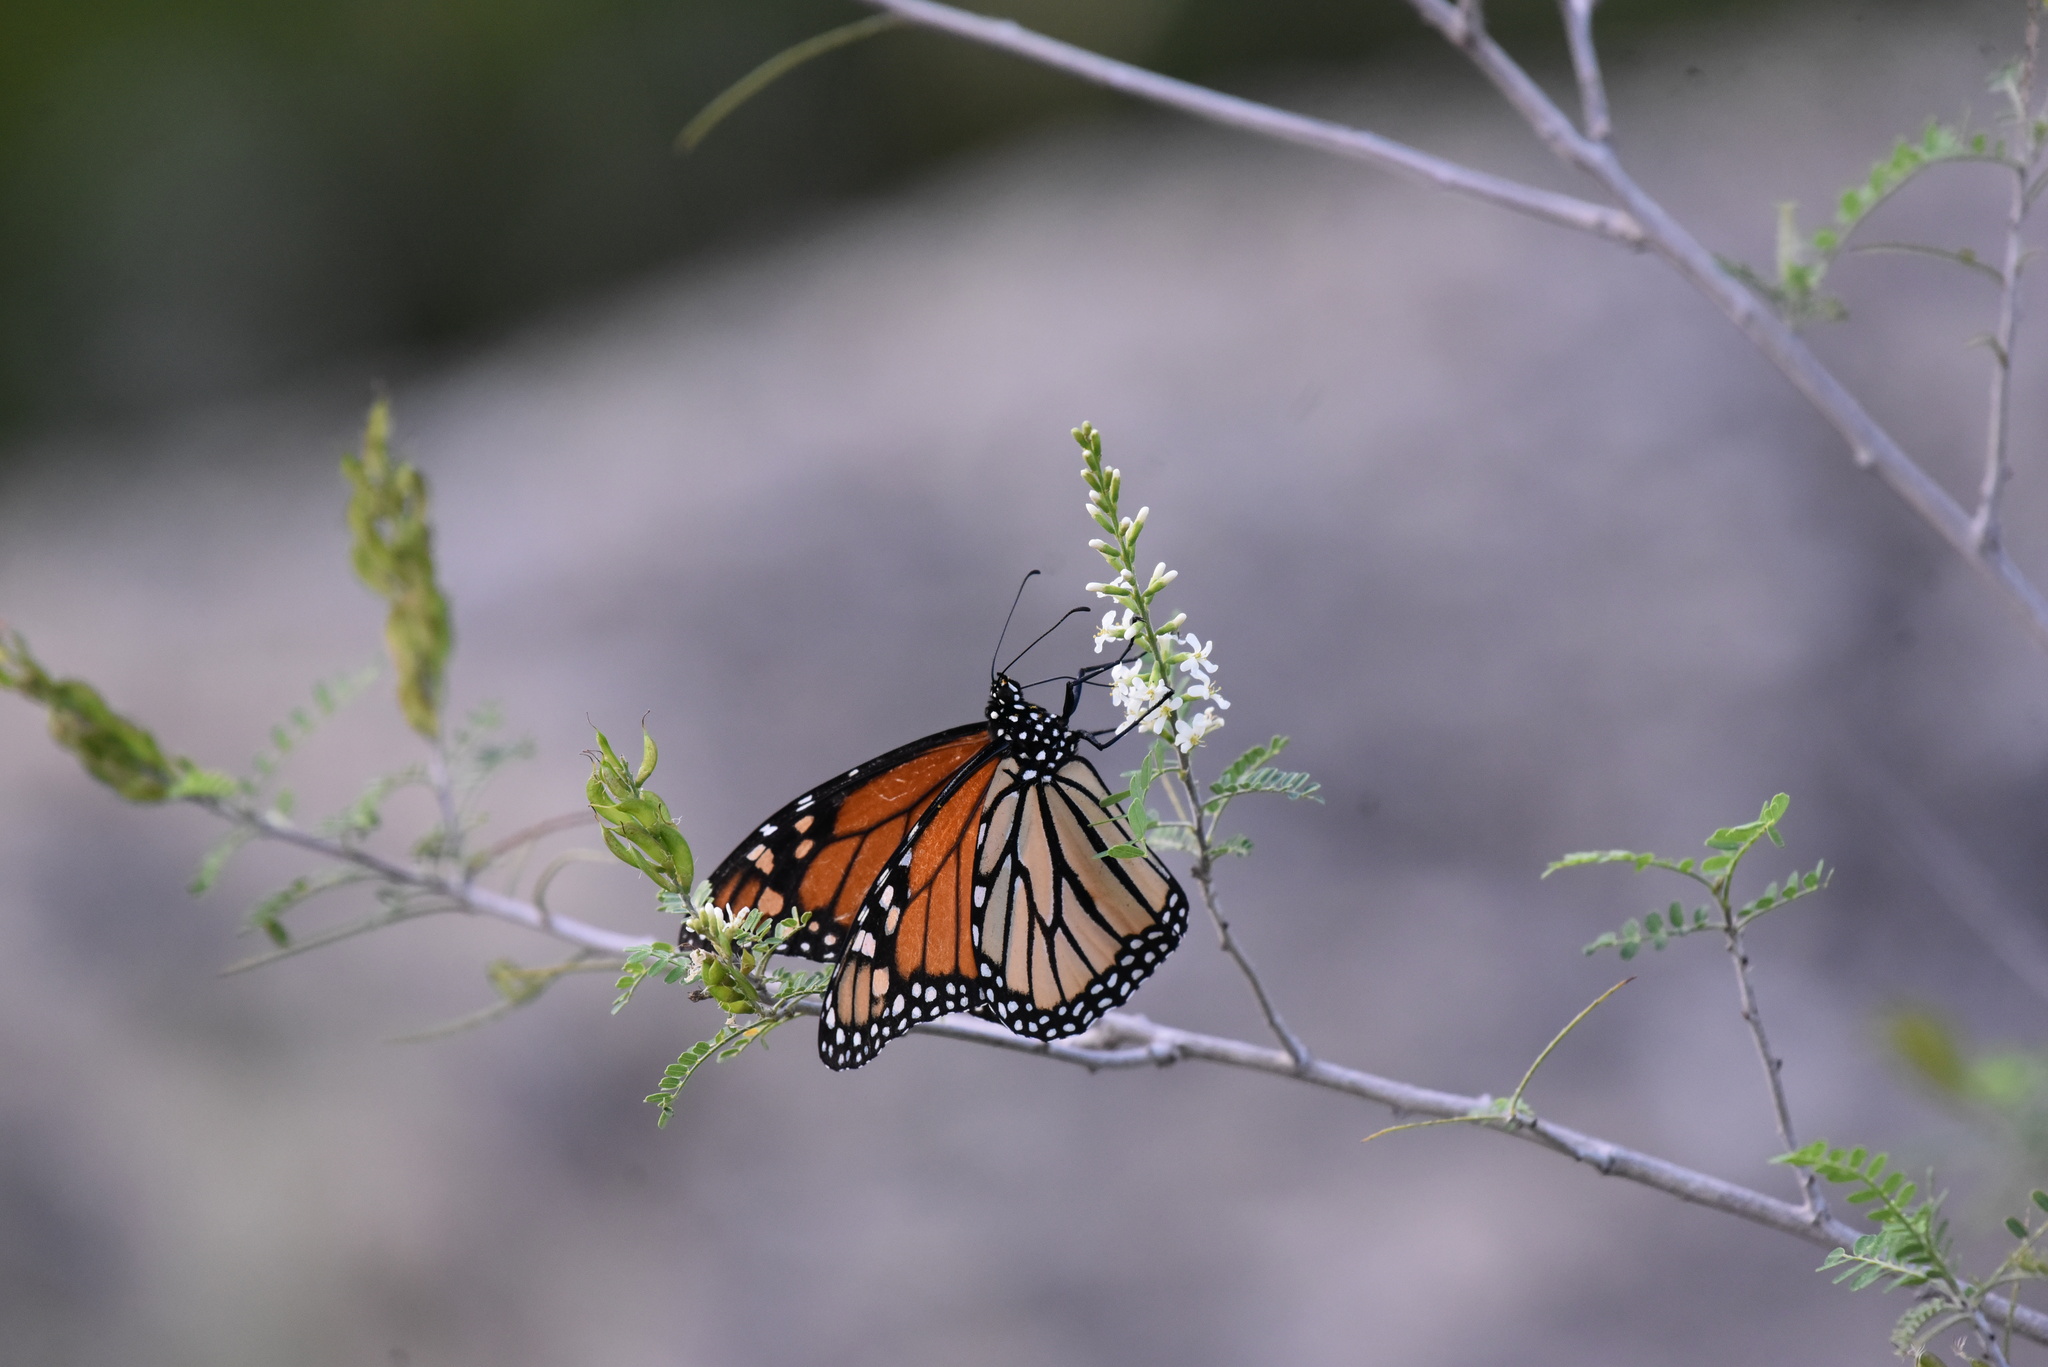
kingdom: Animalia
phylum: Arthropoda
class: Insecta
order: Lepidoptera
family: Nymphalidae
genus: Danaus
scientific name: Danaus plexippus
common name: Monarch
